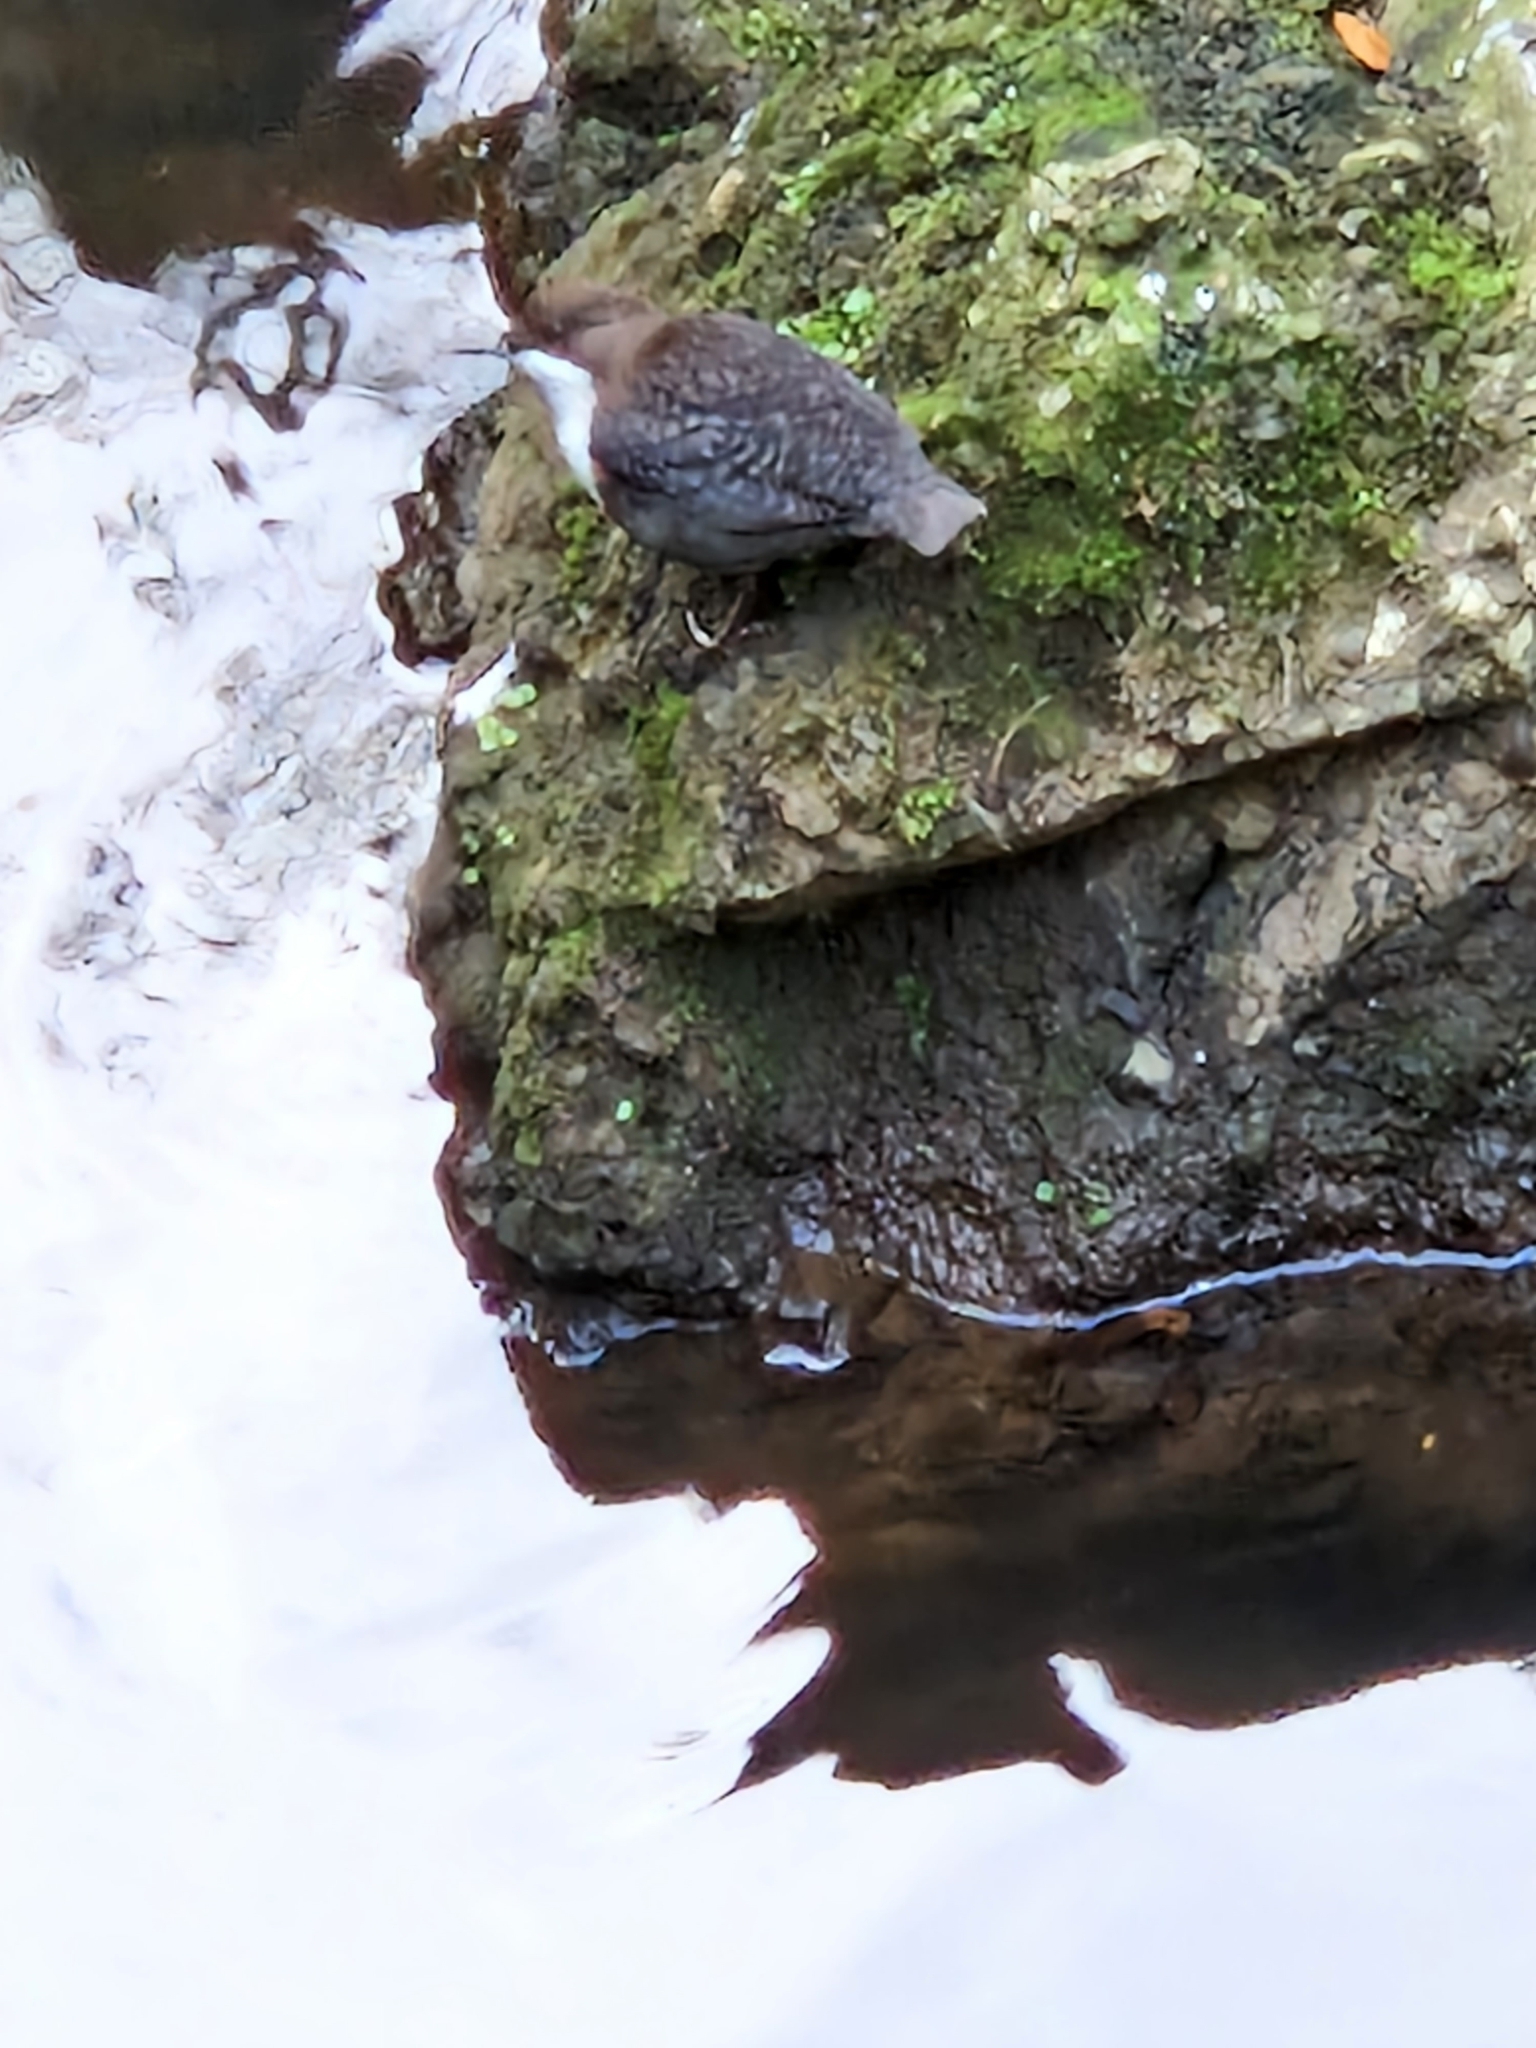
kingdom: Animalia
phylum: Chordata
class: Aves
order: Passeriformes
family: Cinclidae
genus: Cinclus
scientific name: Cinclus cinclus
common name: White-throated dipper
